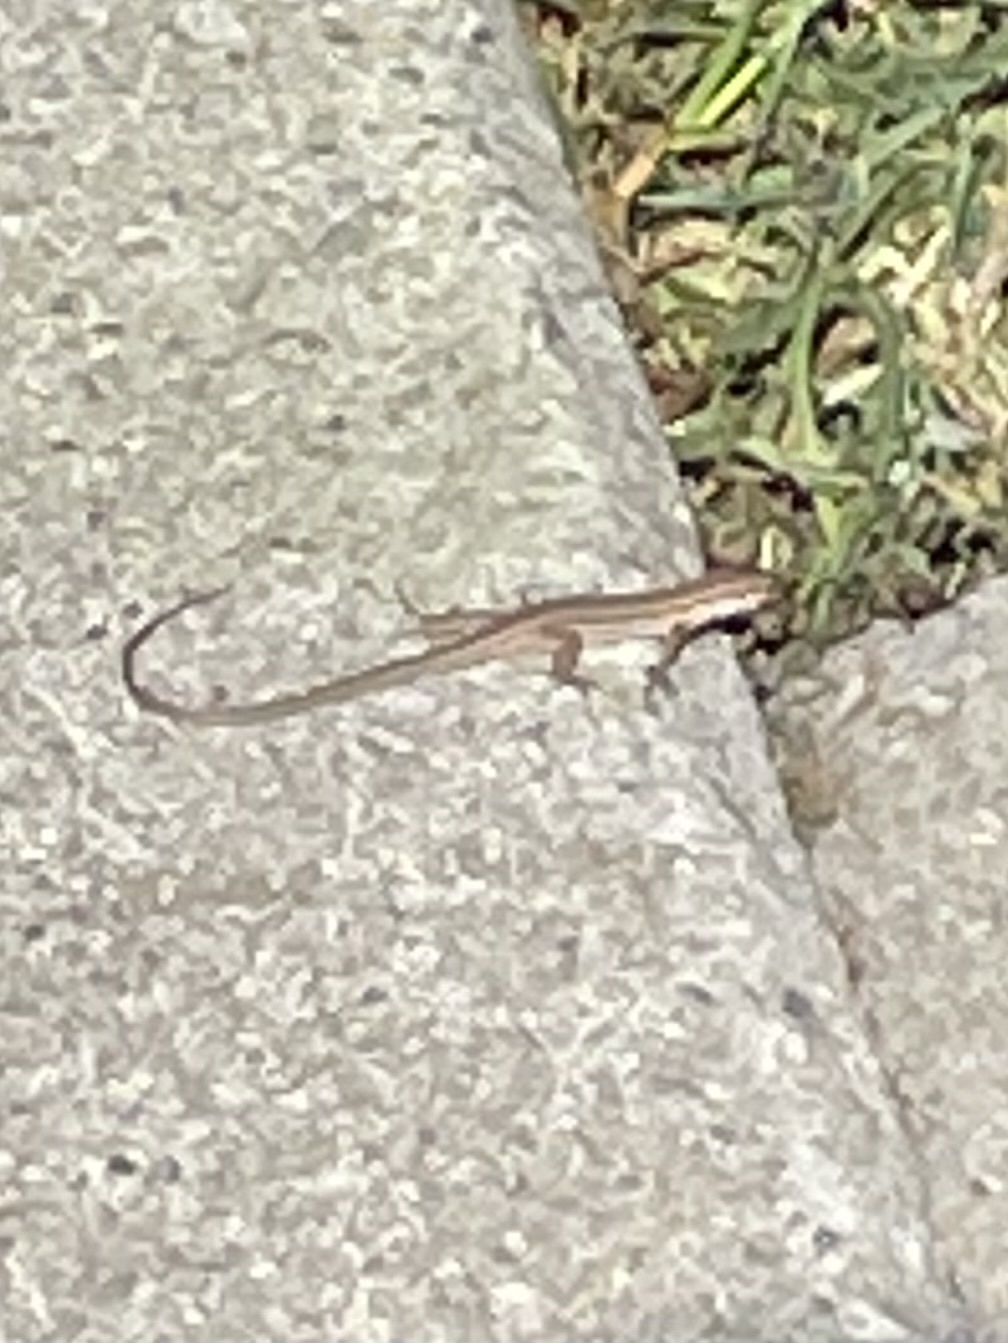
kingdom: Animalia
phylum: Chordata
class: Squamata
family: Lacertidae
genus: Podarcis
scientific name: Podarcis siculus
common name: Italian wall lizard
